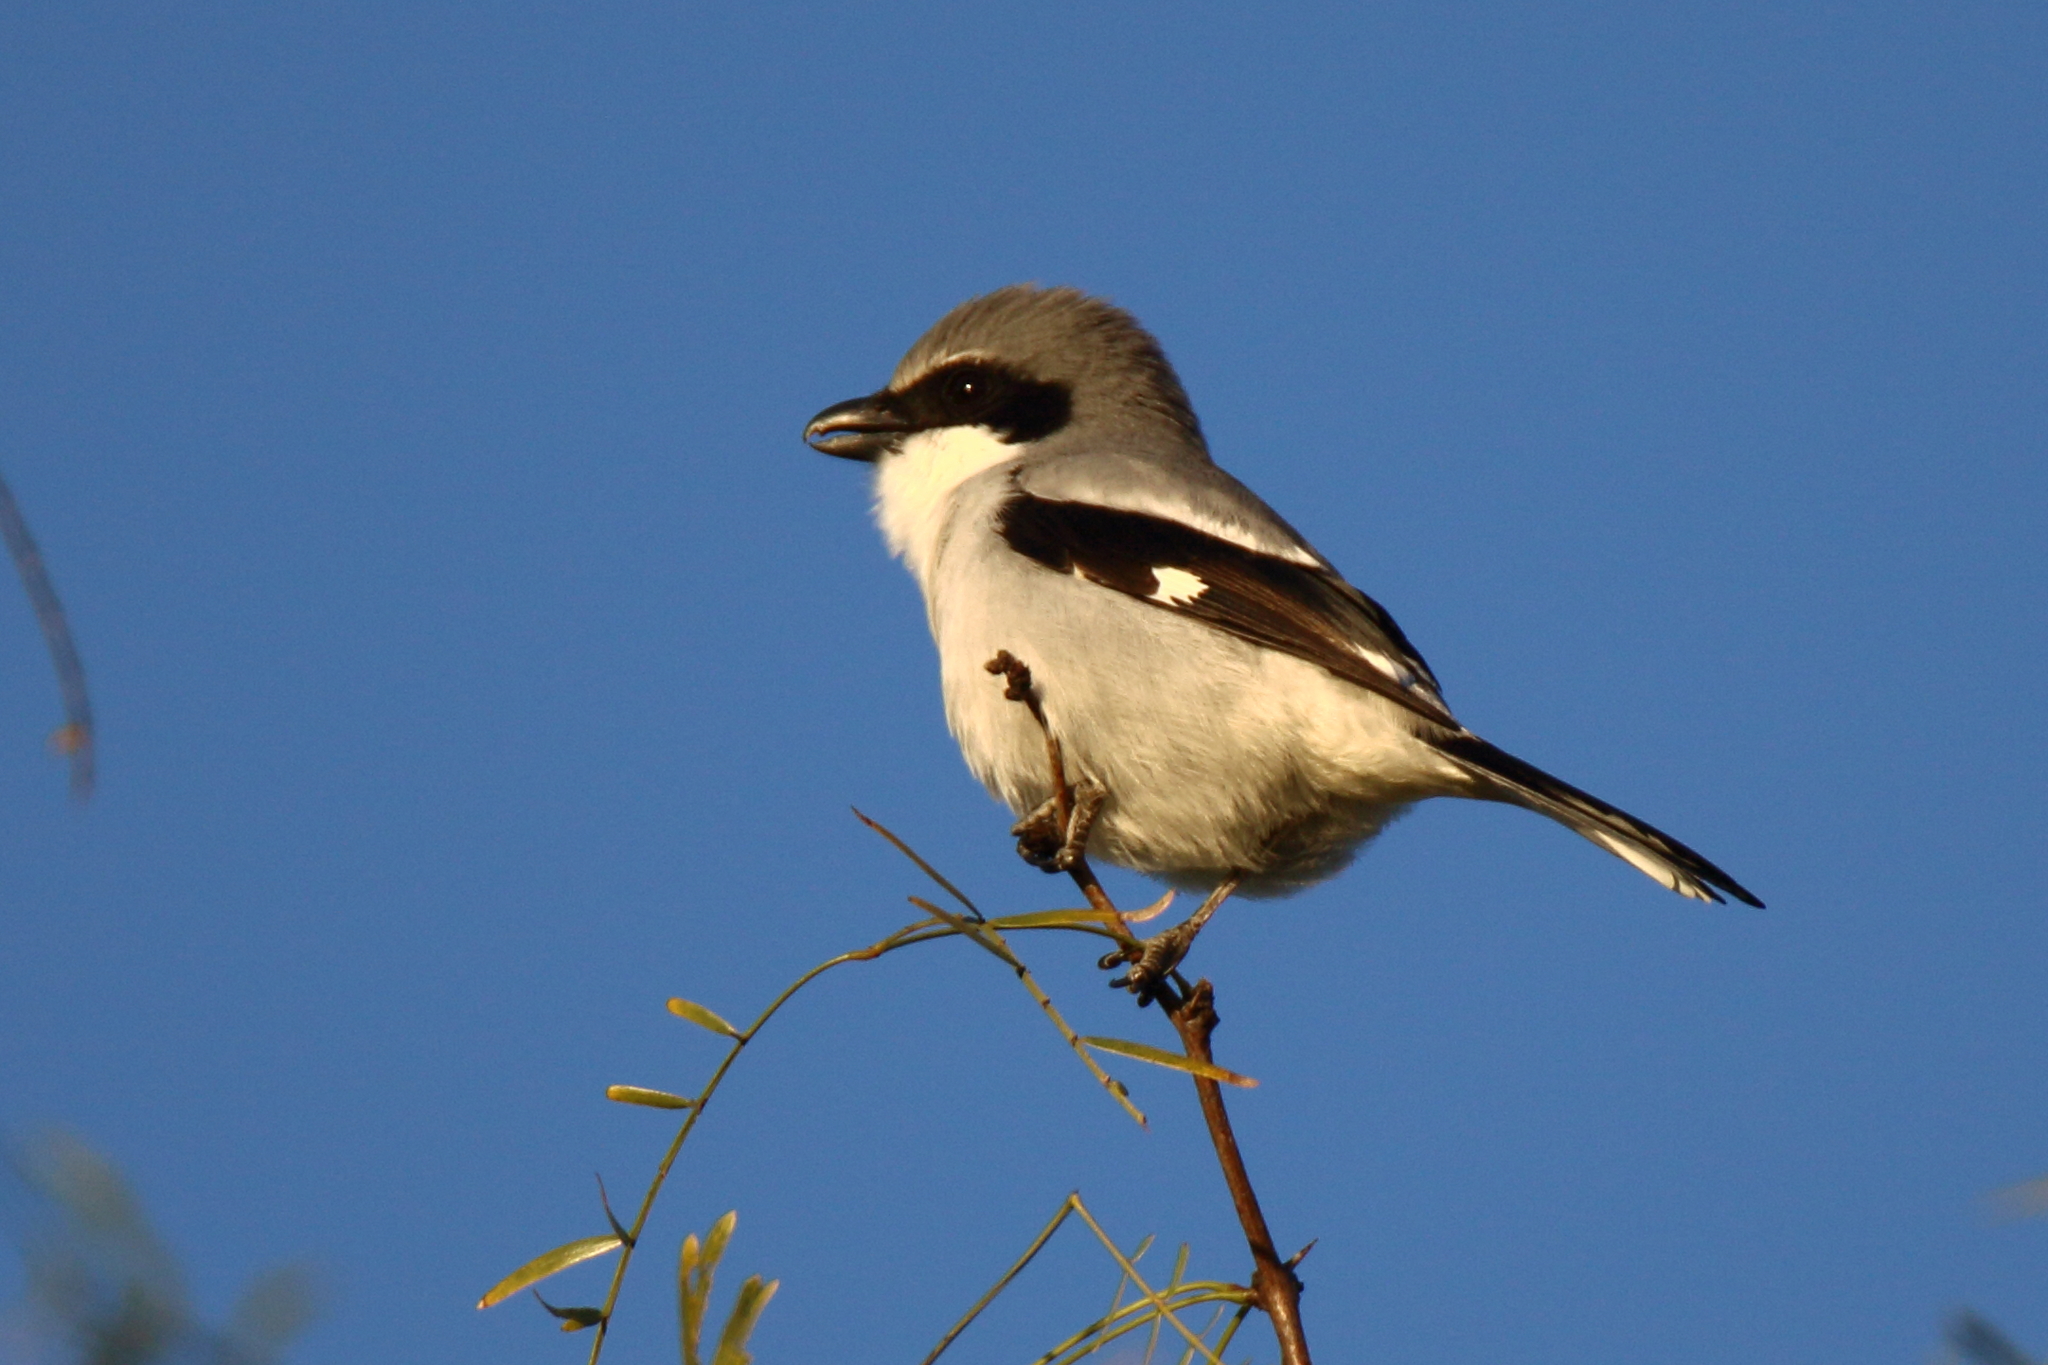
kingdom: Animalia
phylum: Chordata
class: Aves
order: Passeriformes
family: Laniidae
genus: Lanius
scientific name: Lanius ludovicianus
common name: Loggerhead shrike
